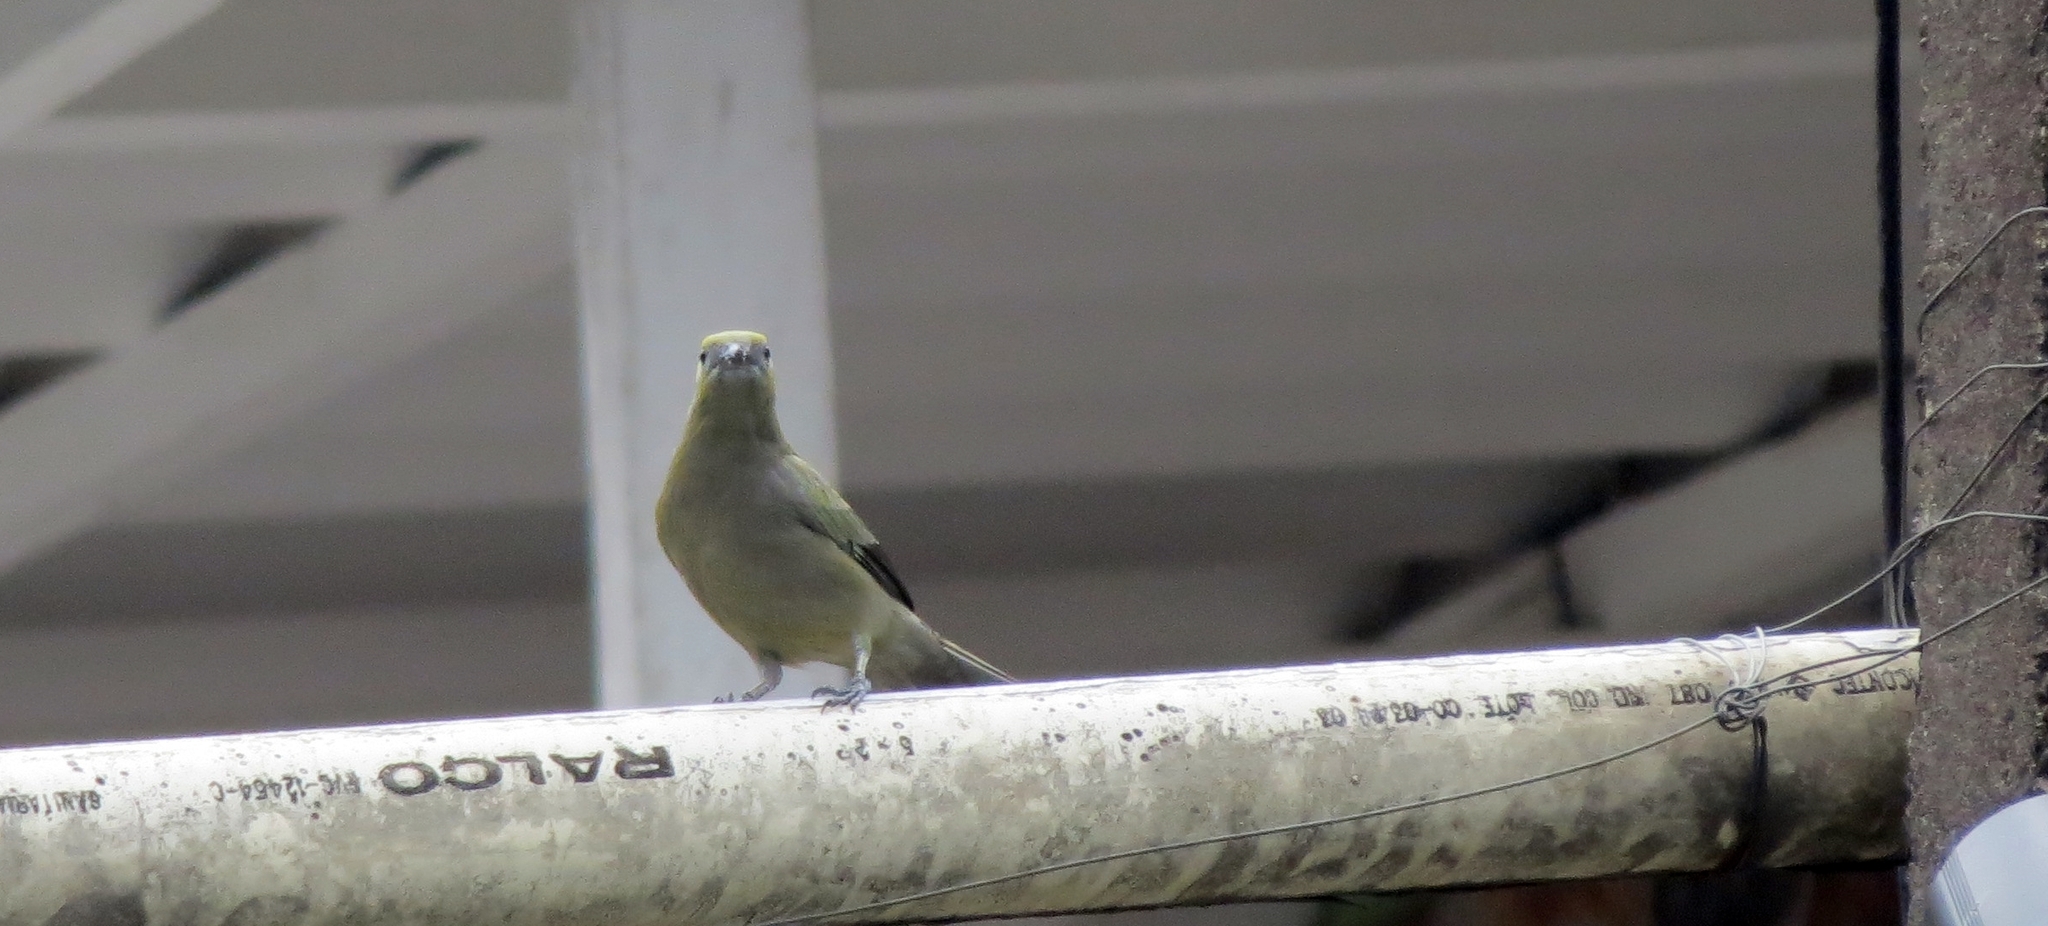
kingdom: Animalia
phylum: Chordata
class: Aves
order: Passeriformes
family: Thraupidae
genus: Thraupis
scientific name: Thraupis palmarum
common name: Palm tanager
